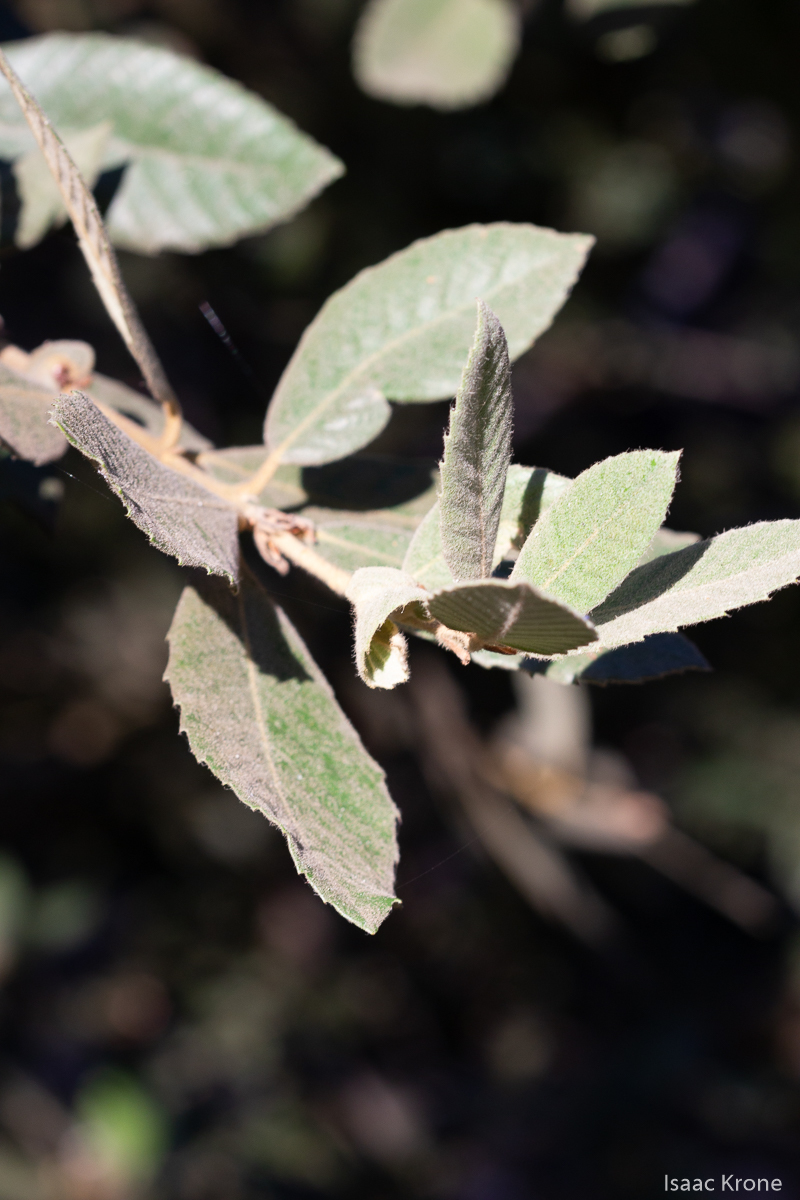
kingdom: Plantae
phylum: Tracheophyta
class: Magnoliopsida
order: Fagales
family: Fagaceae
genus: Notholithocarpus
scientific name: Notholithocarpus densiflorus
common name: Tan bark oak
